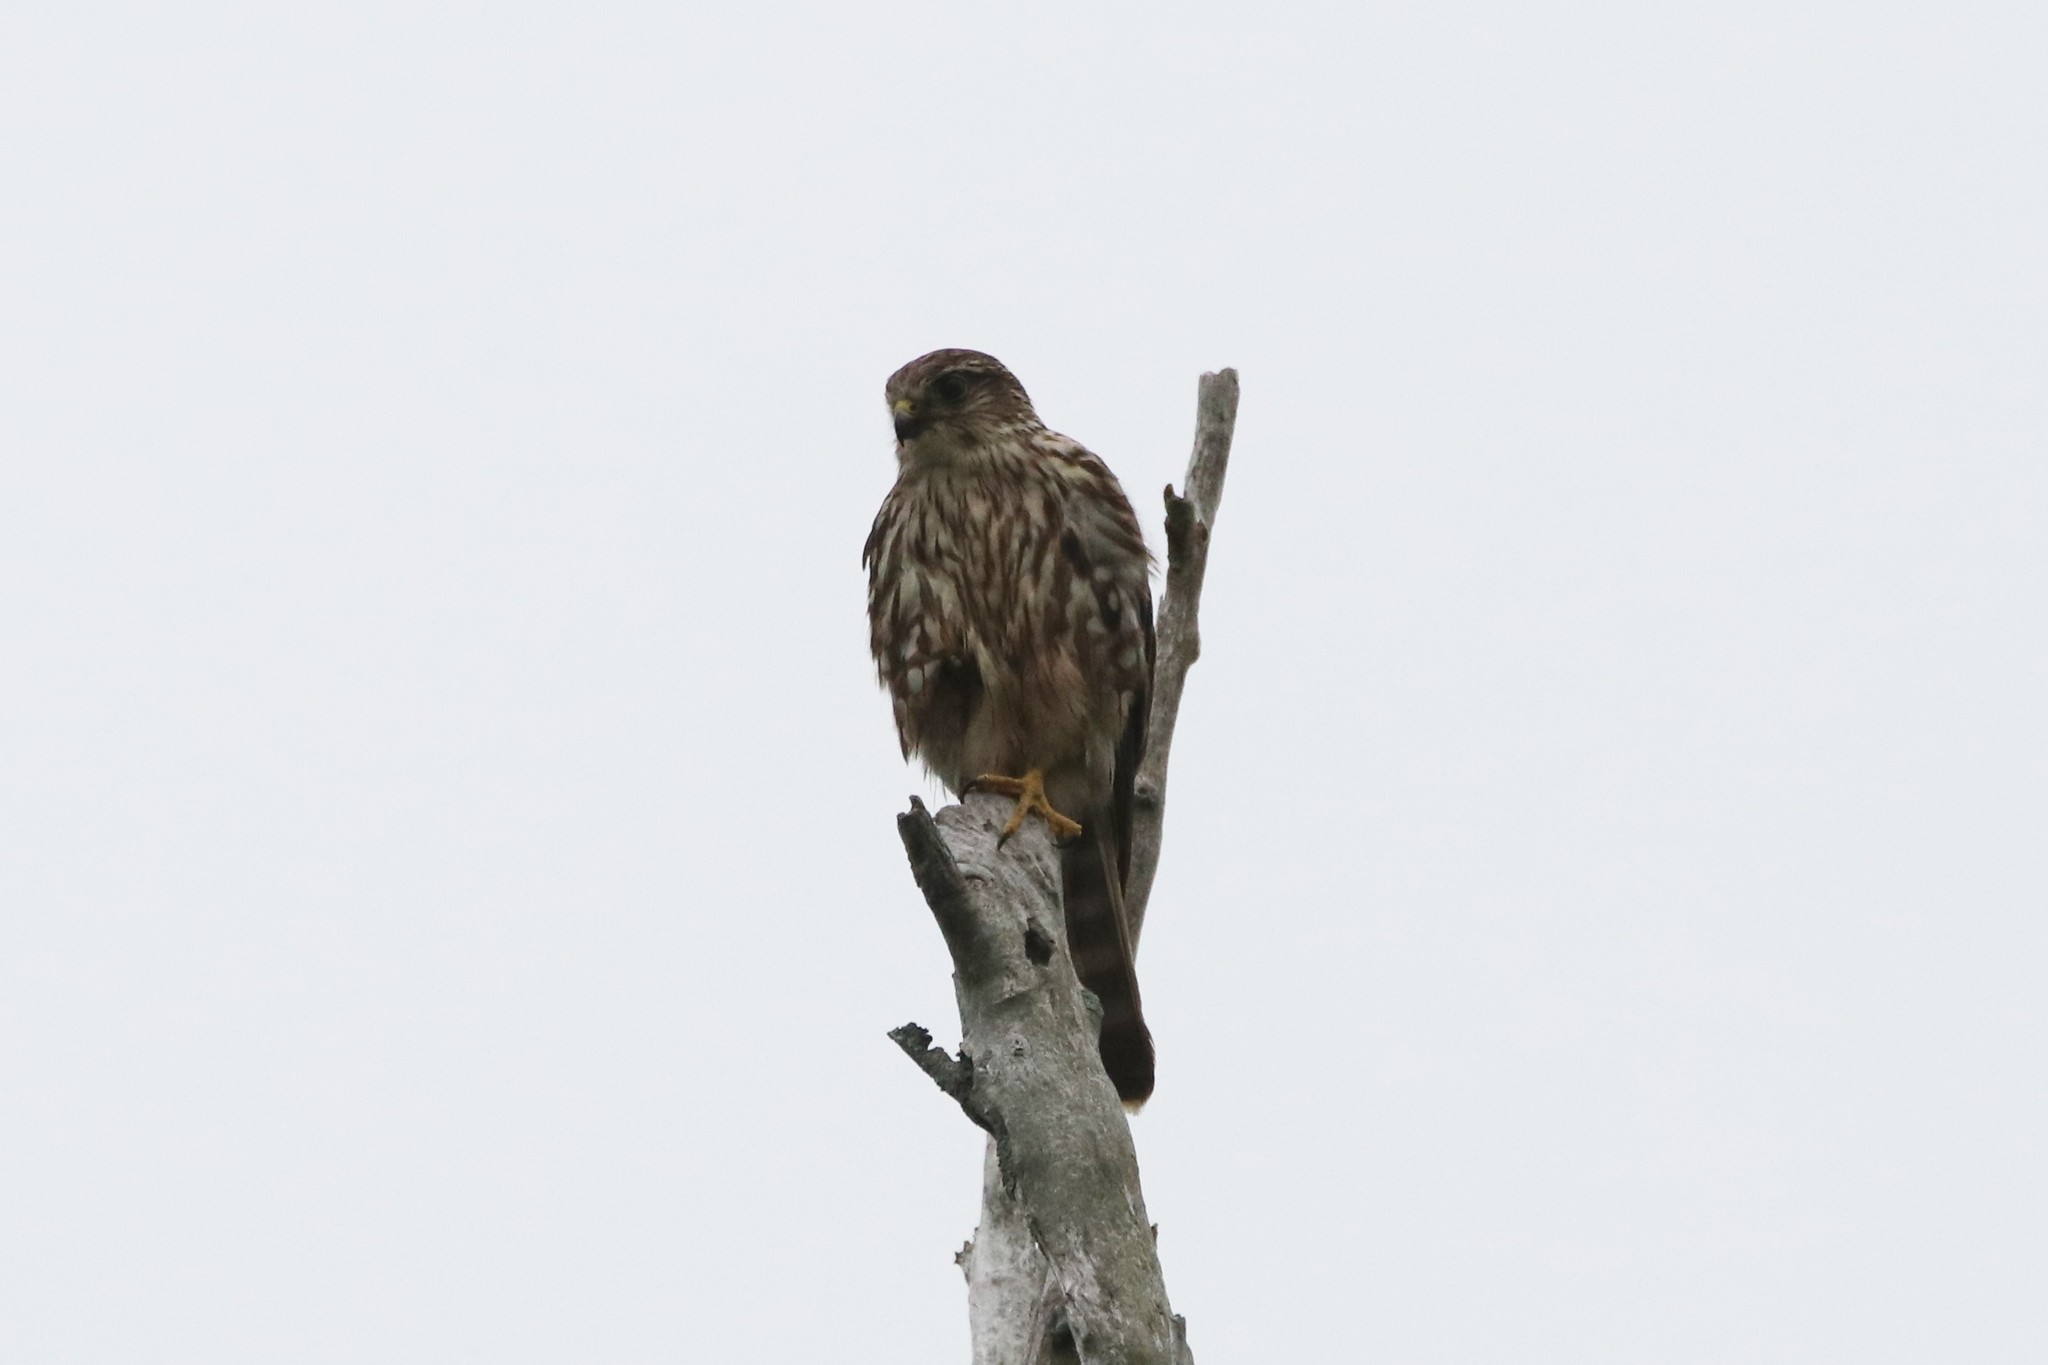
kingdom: Animalia
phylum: Chordata
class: Aves
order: Falconiformes
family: Falconidae
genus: Falco
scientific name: Falco columbarius
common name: Merlin
